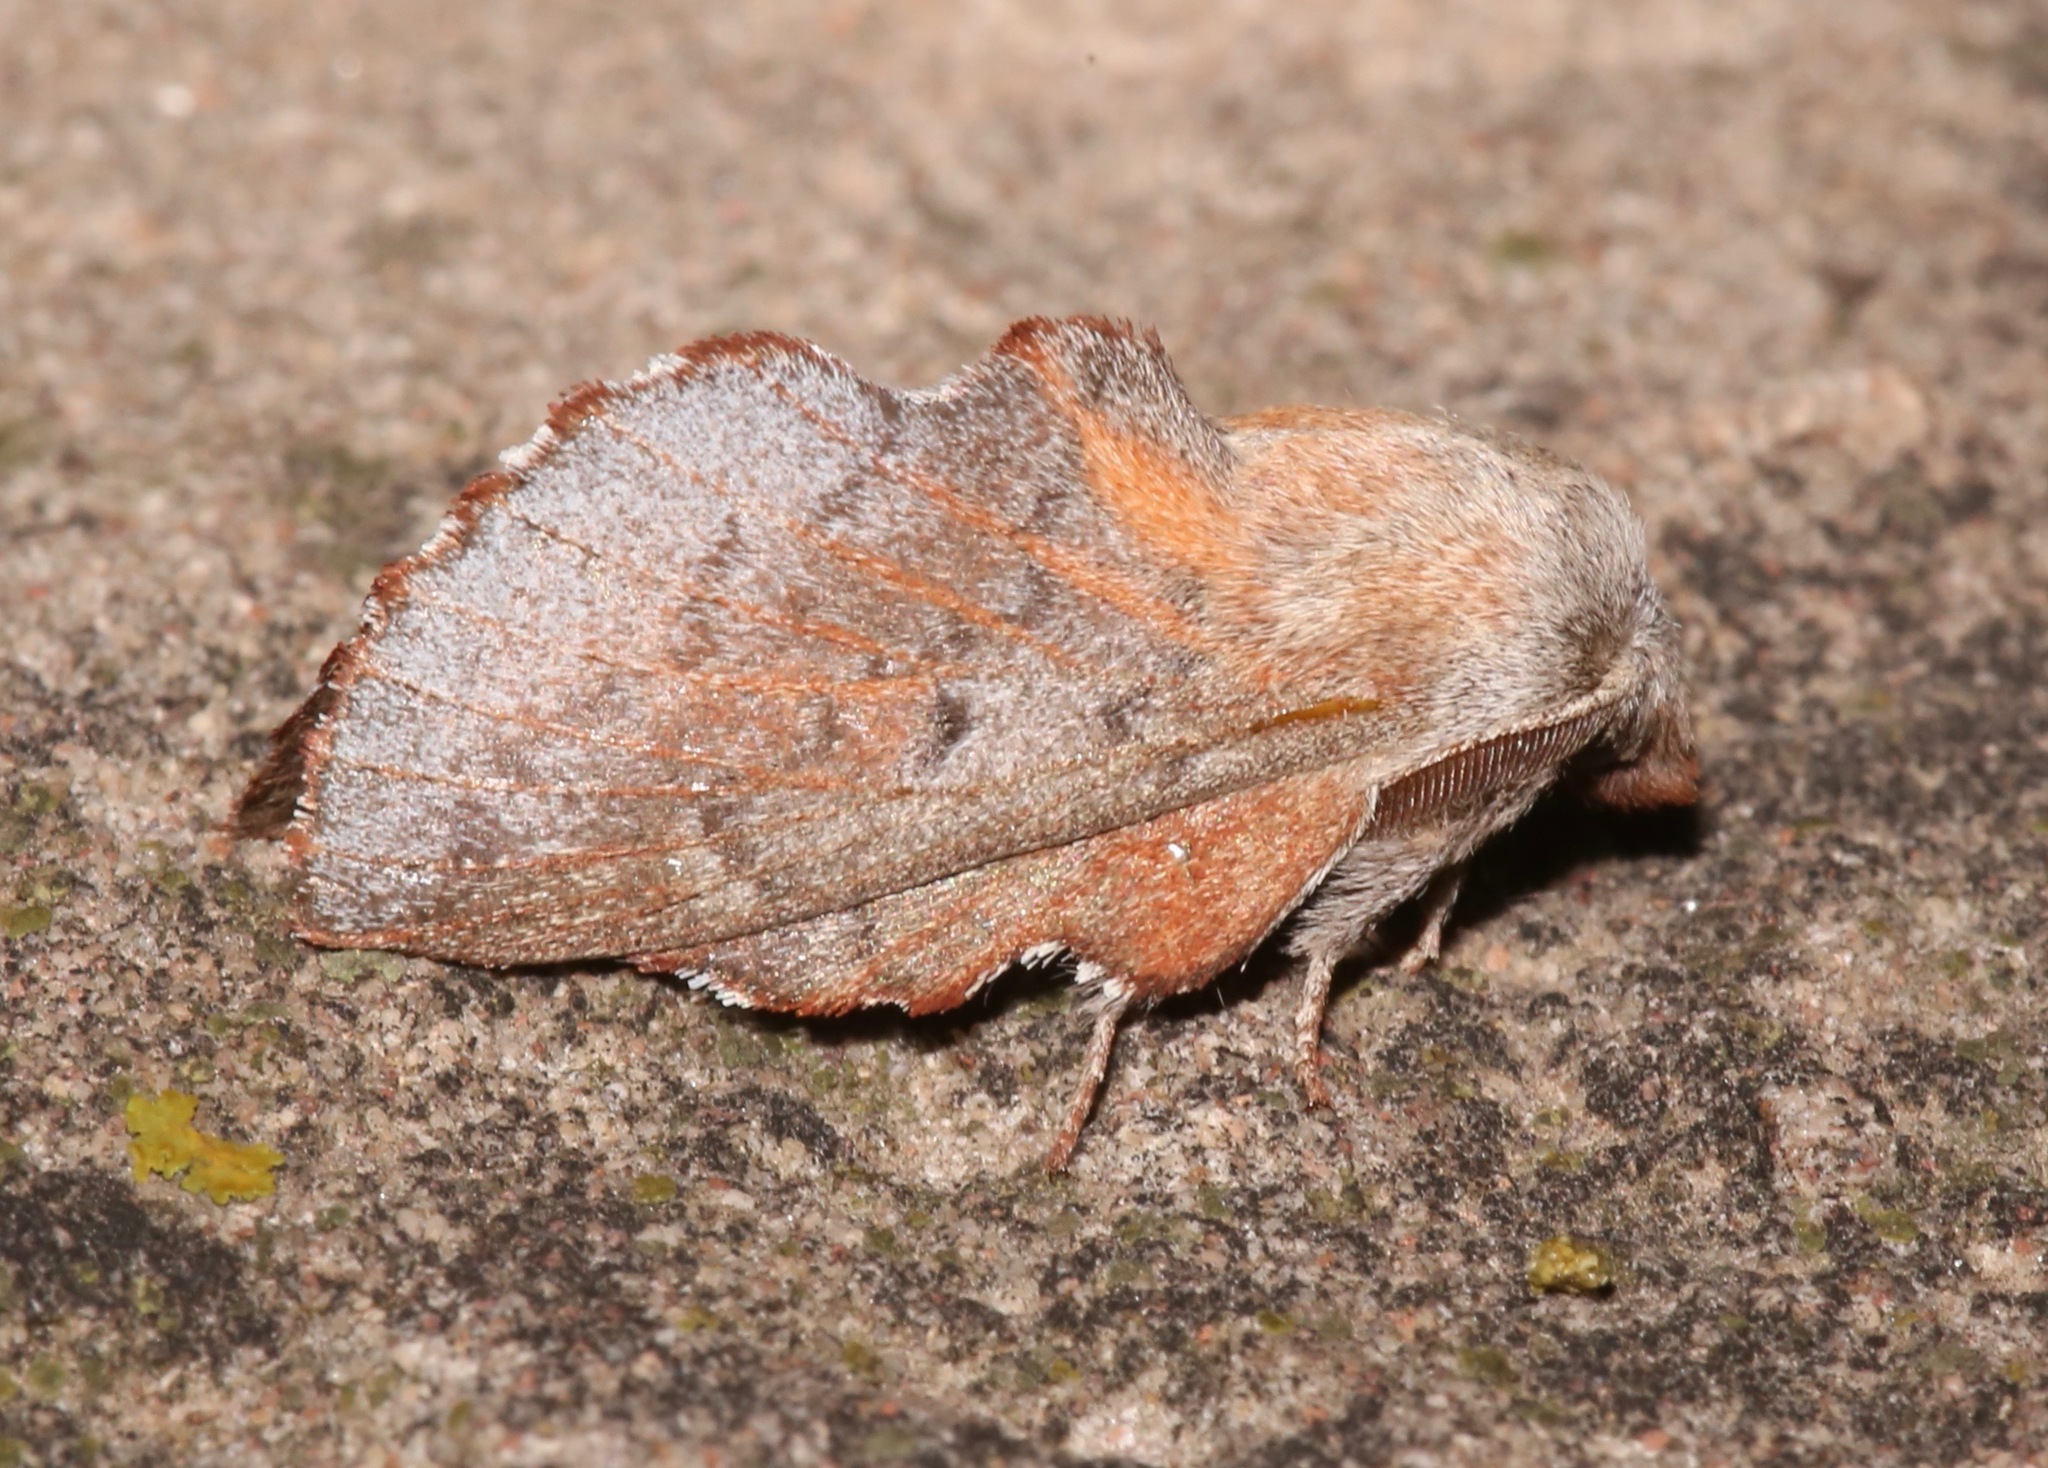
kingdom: Animalia
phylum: Arthropoda
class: Insecta
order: Lepidoptera
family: Lasiocampidae
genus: Phyllodesma
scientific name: Phyllodesma americana
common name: American lappet moth
